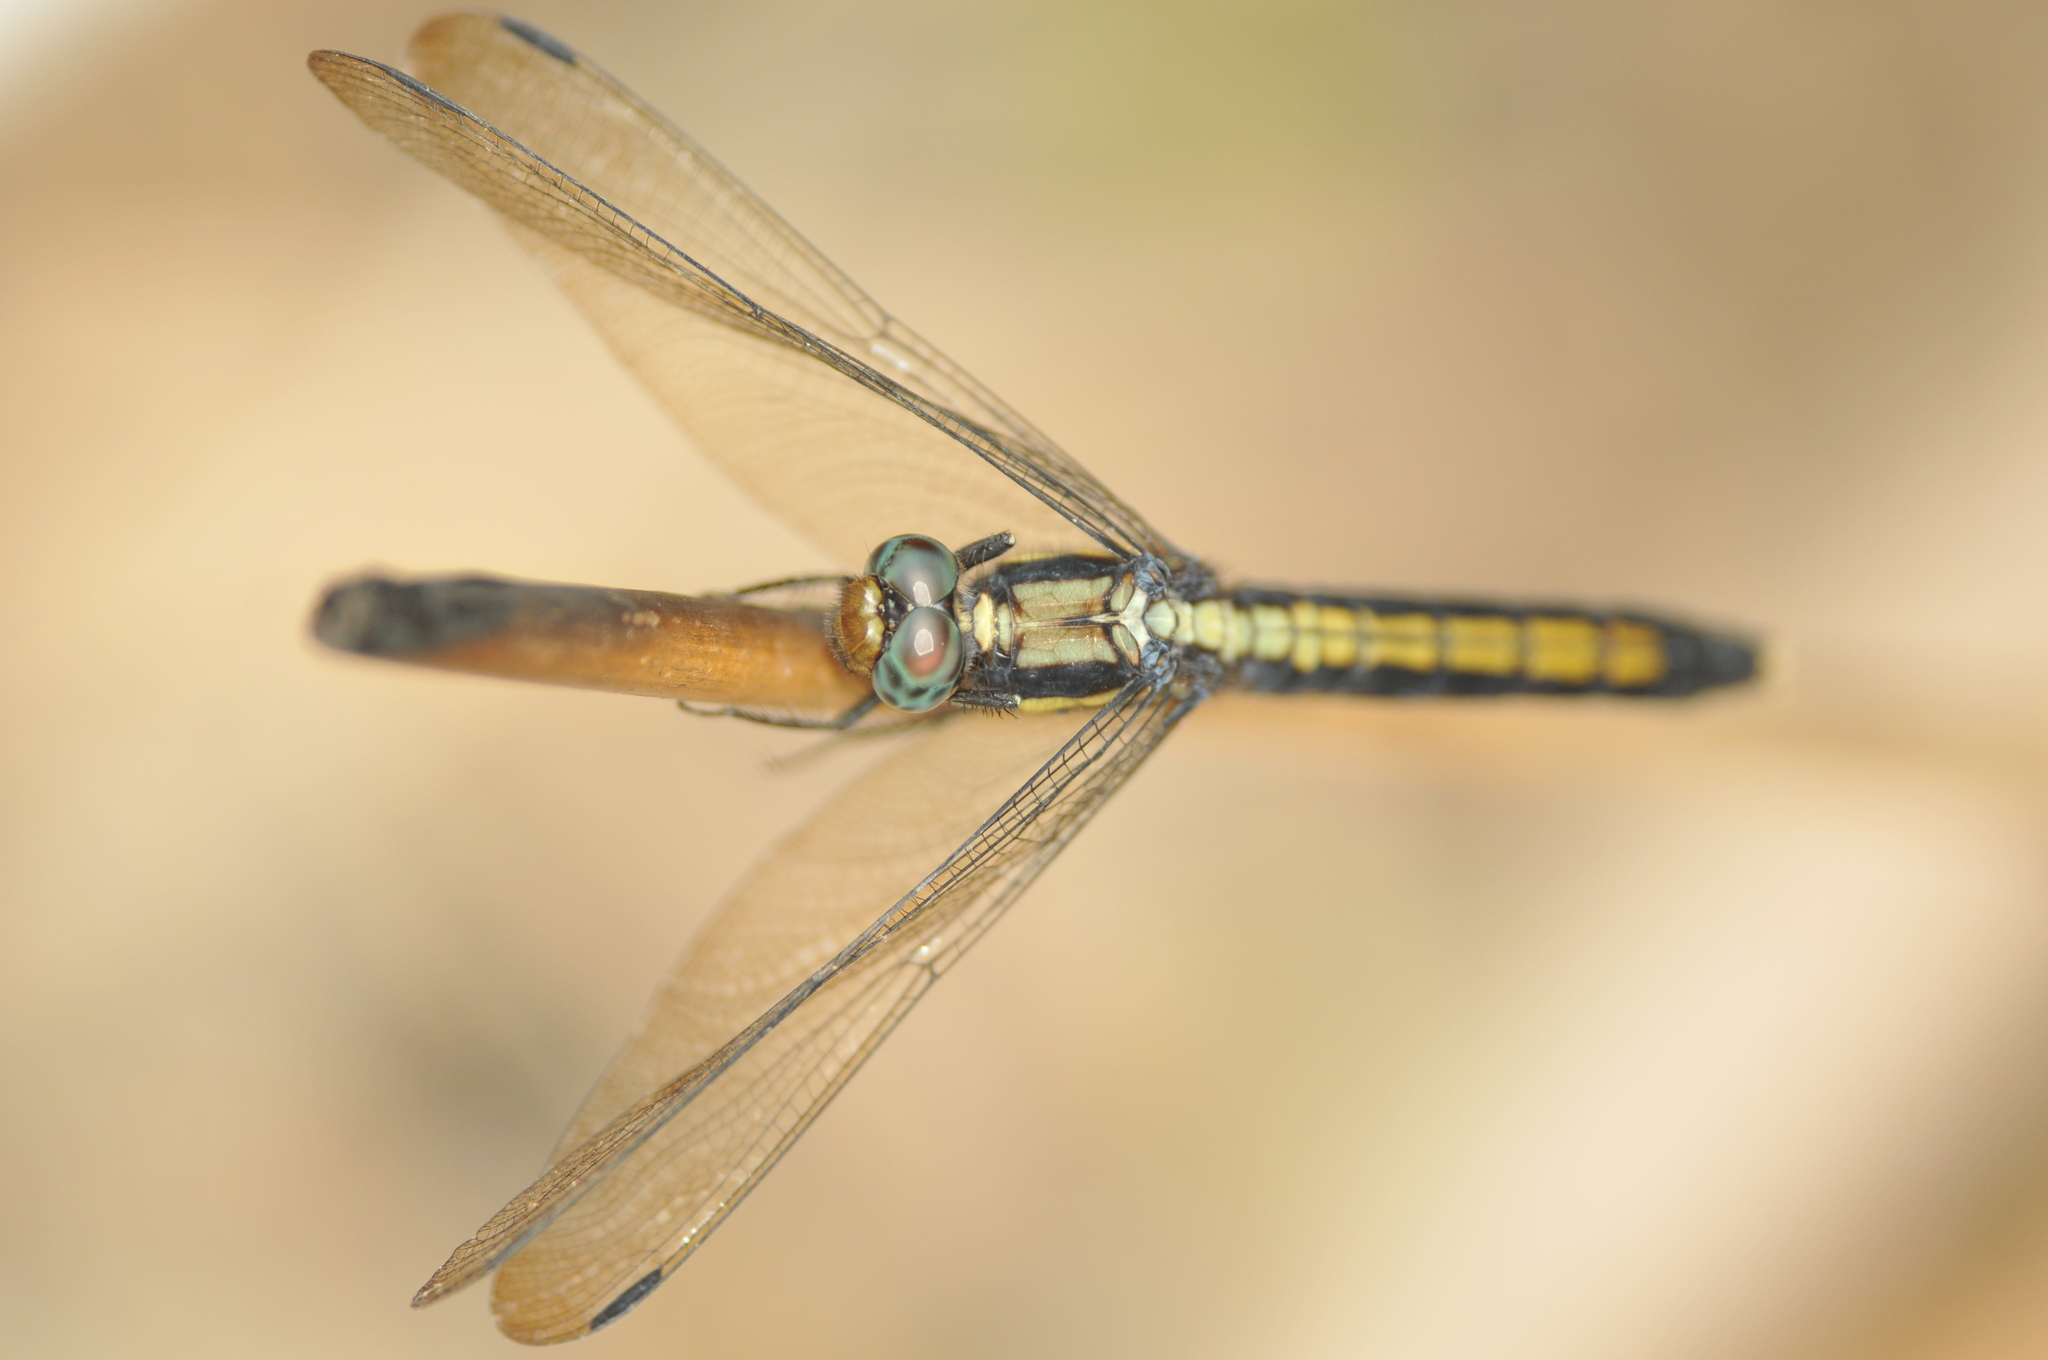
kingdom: Animalia
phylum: Arthropoda
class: Insecta
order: Odonata
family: Libellulidae
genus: Orthetrum
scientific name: Orthetrum triangulare
